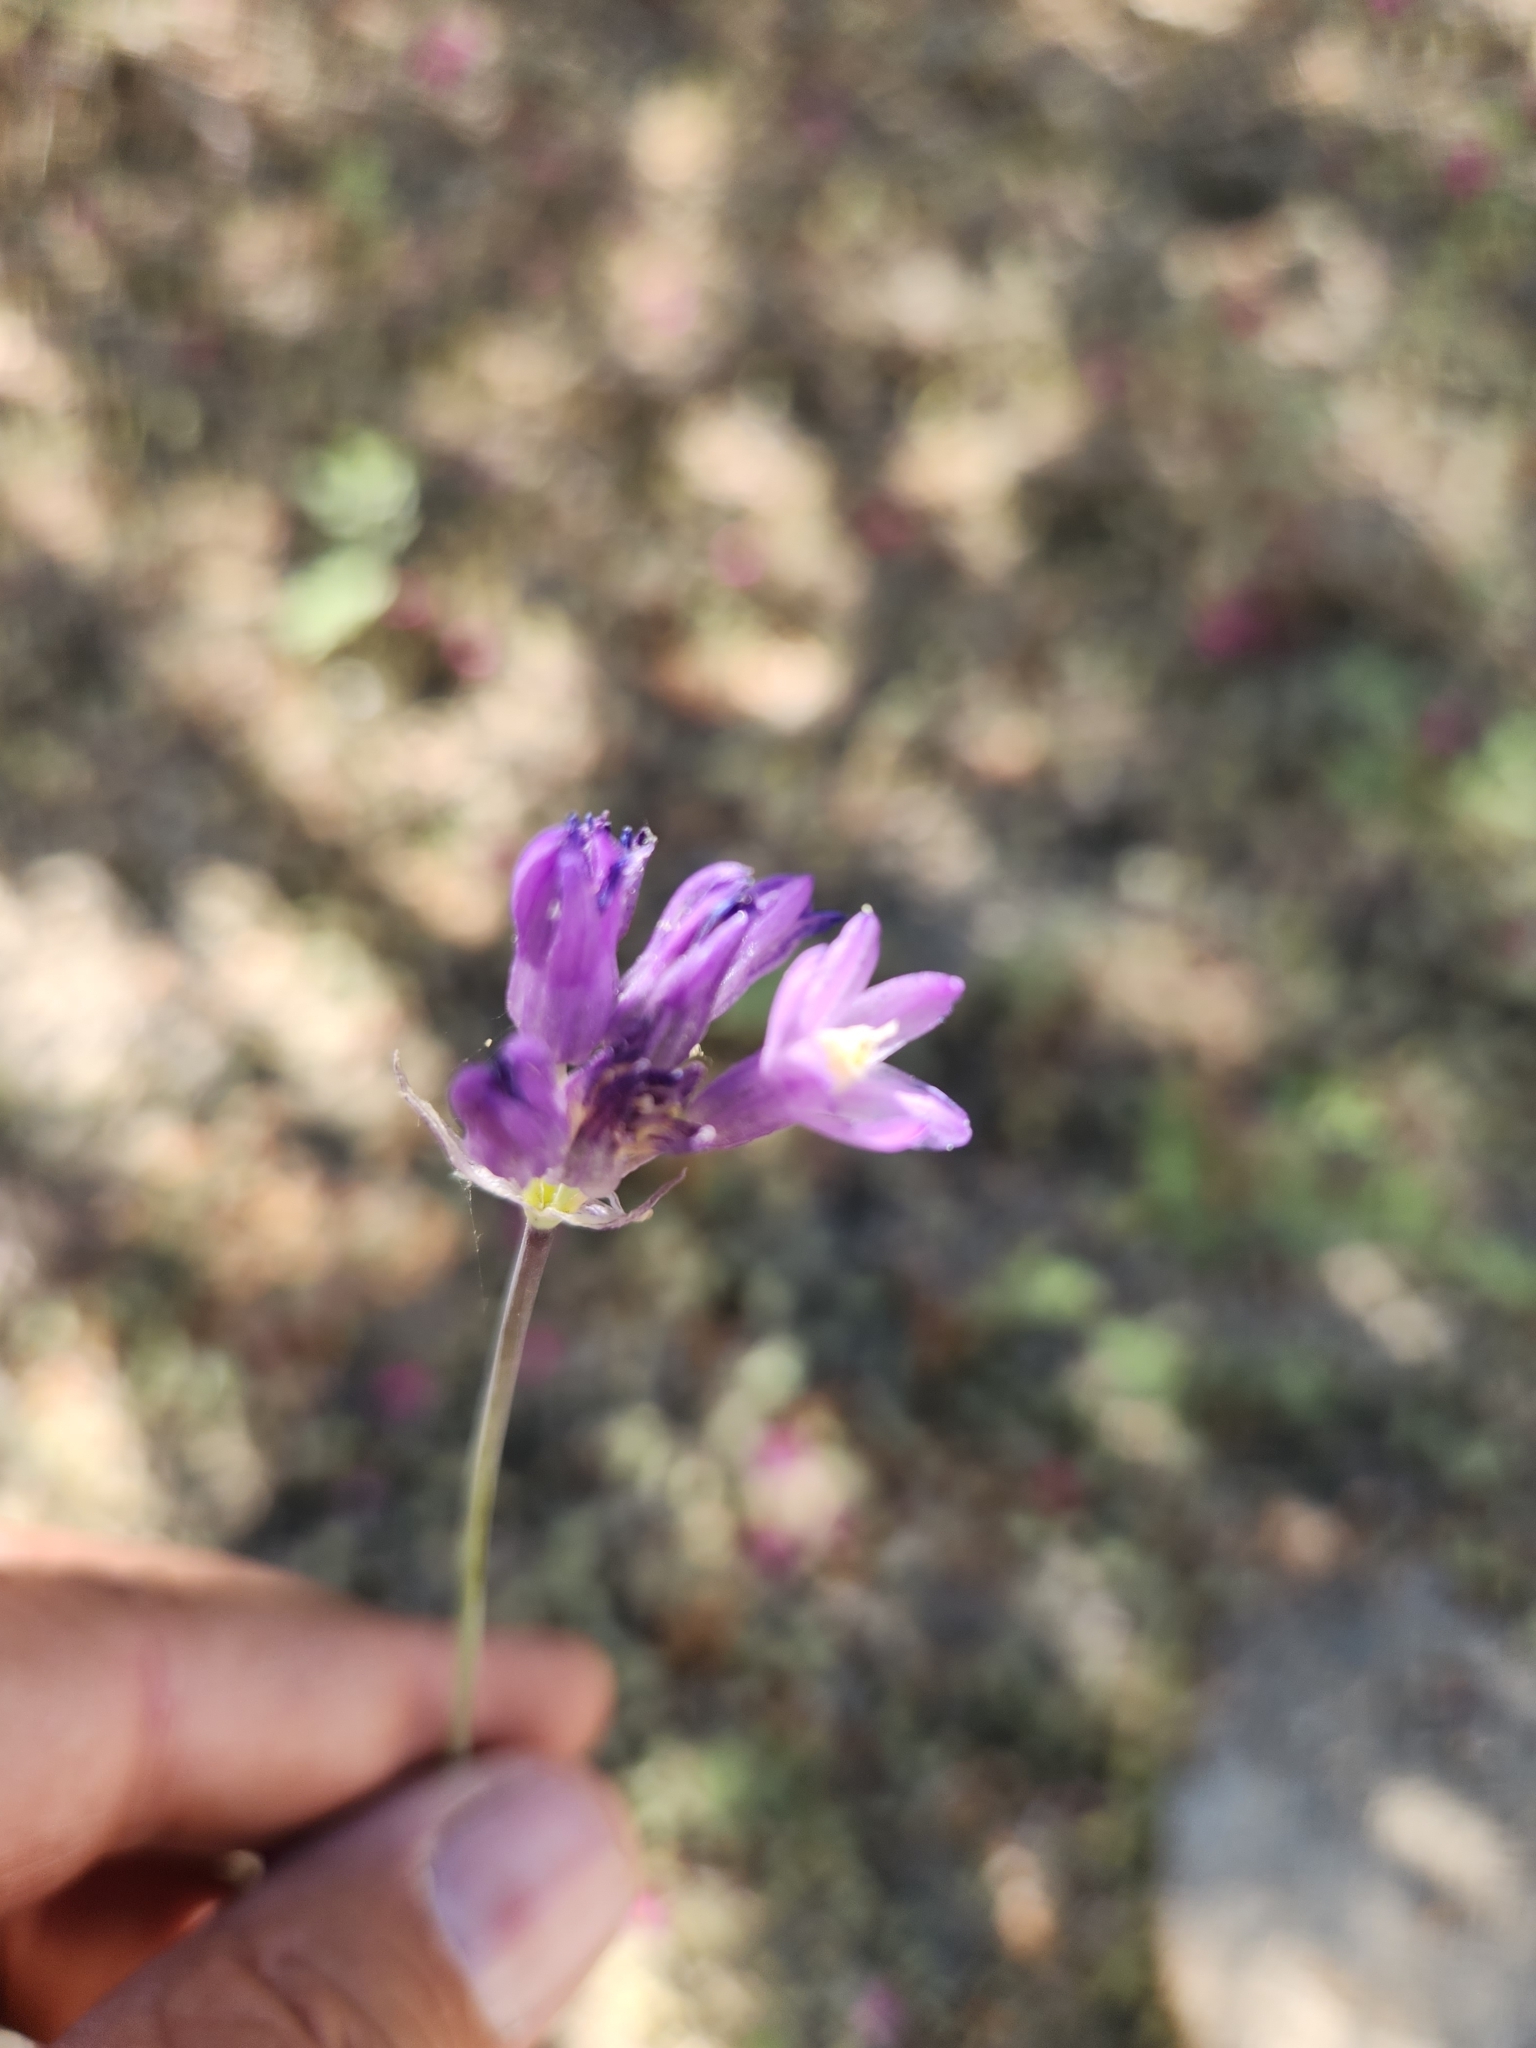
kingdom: Plantae
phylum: Tracheophyta
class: Liliopsida
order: Asparagales
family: Asparagaceae
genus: Dipterostemon
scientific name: Dipterostemon capitatus
